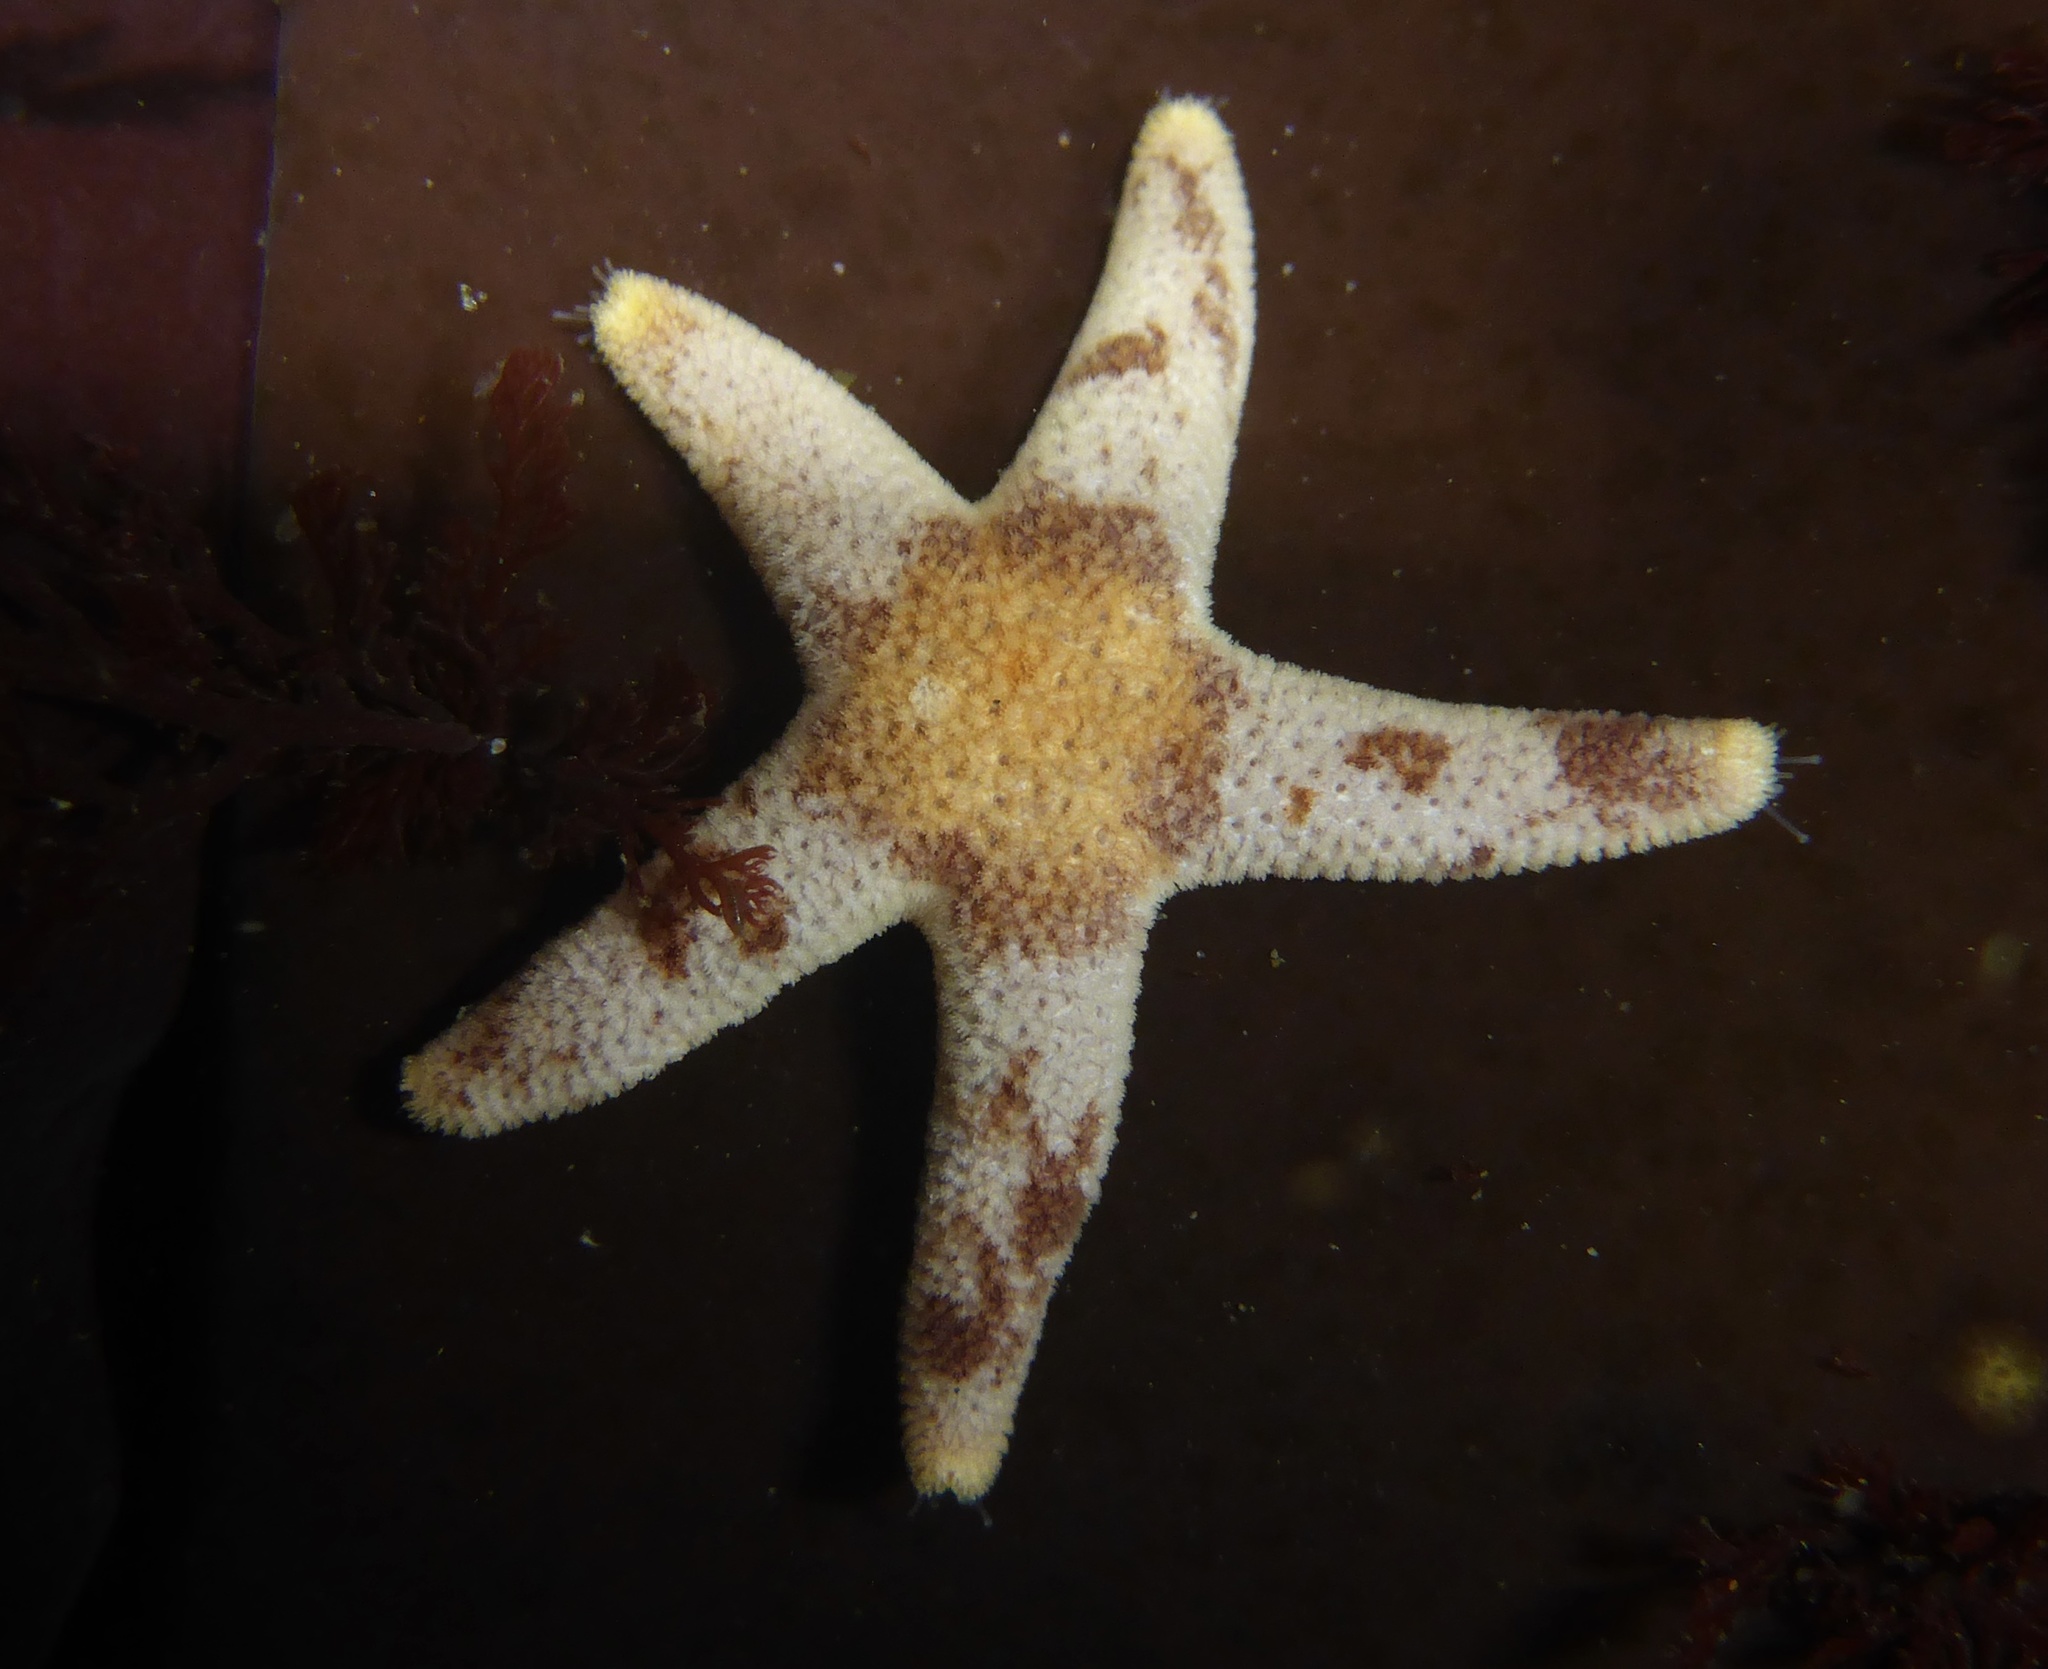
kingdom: Animalia
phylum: Echinodermata
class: Asteroidea
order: Spinulosida
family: Echinasteridae
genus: Henricia
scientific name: Henricia pumila
